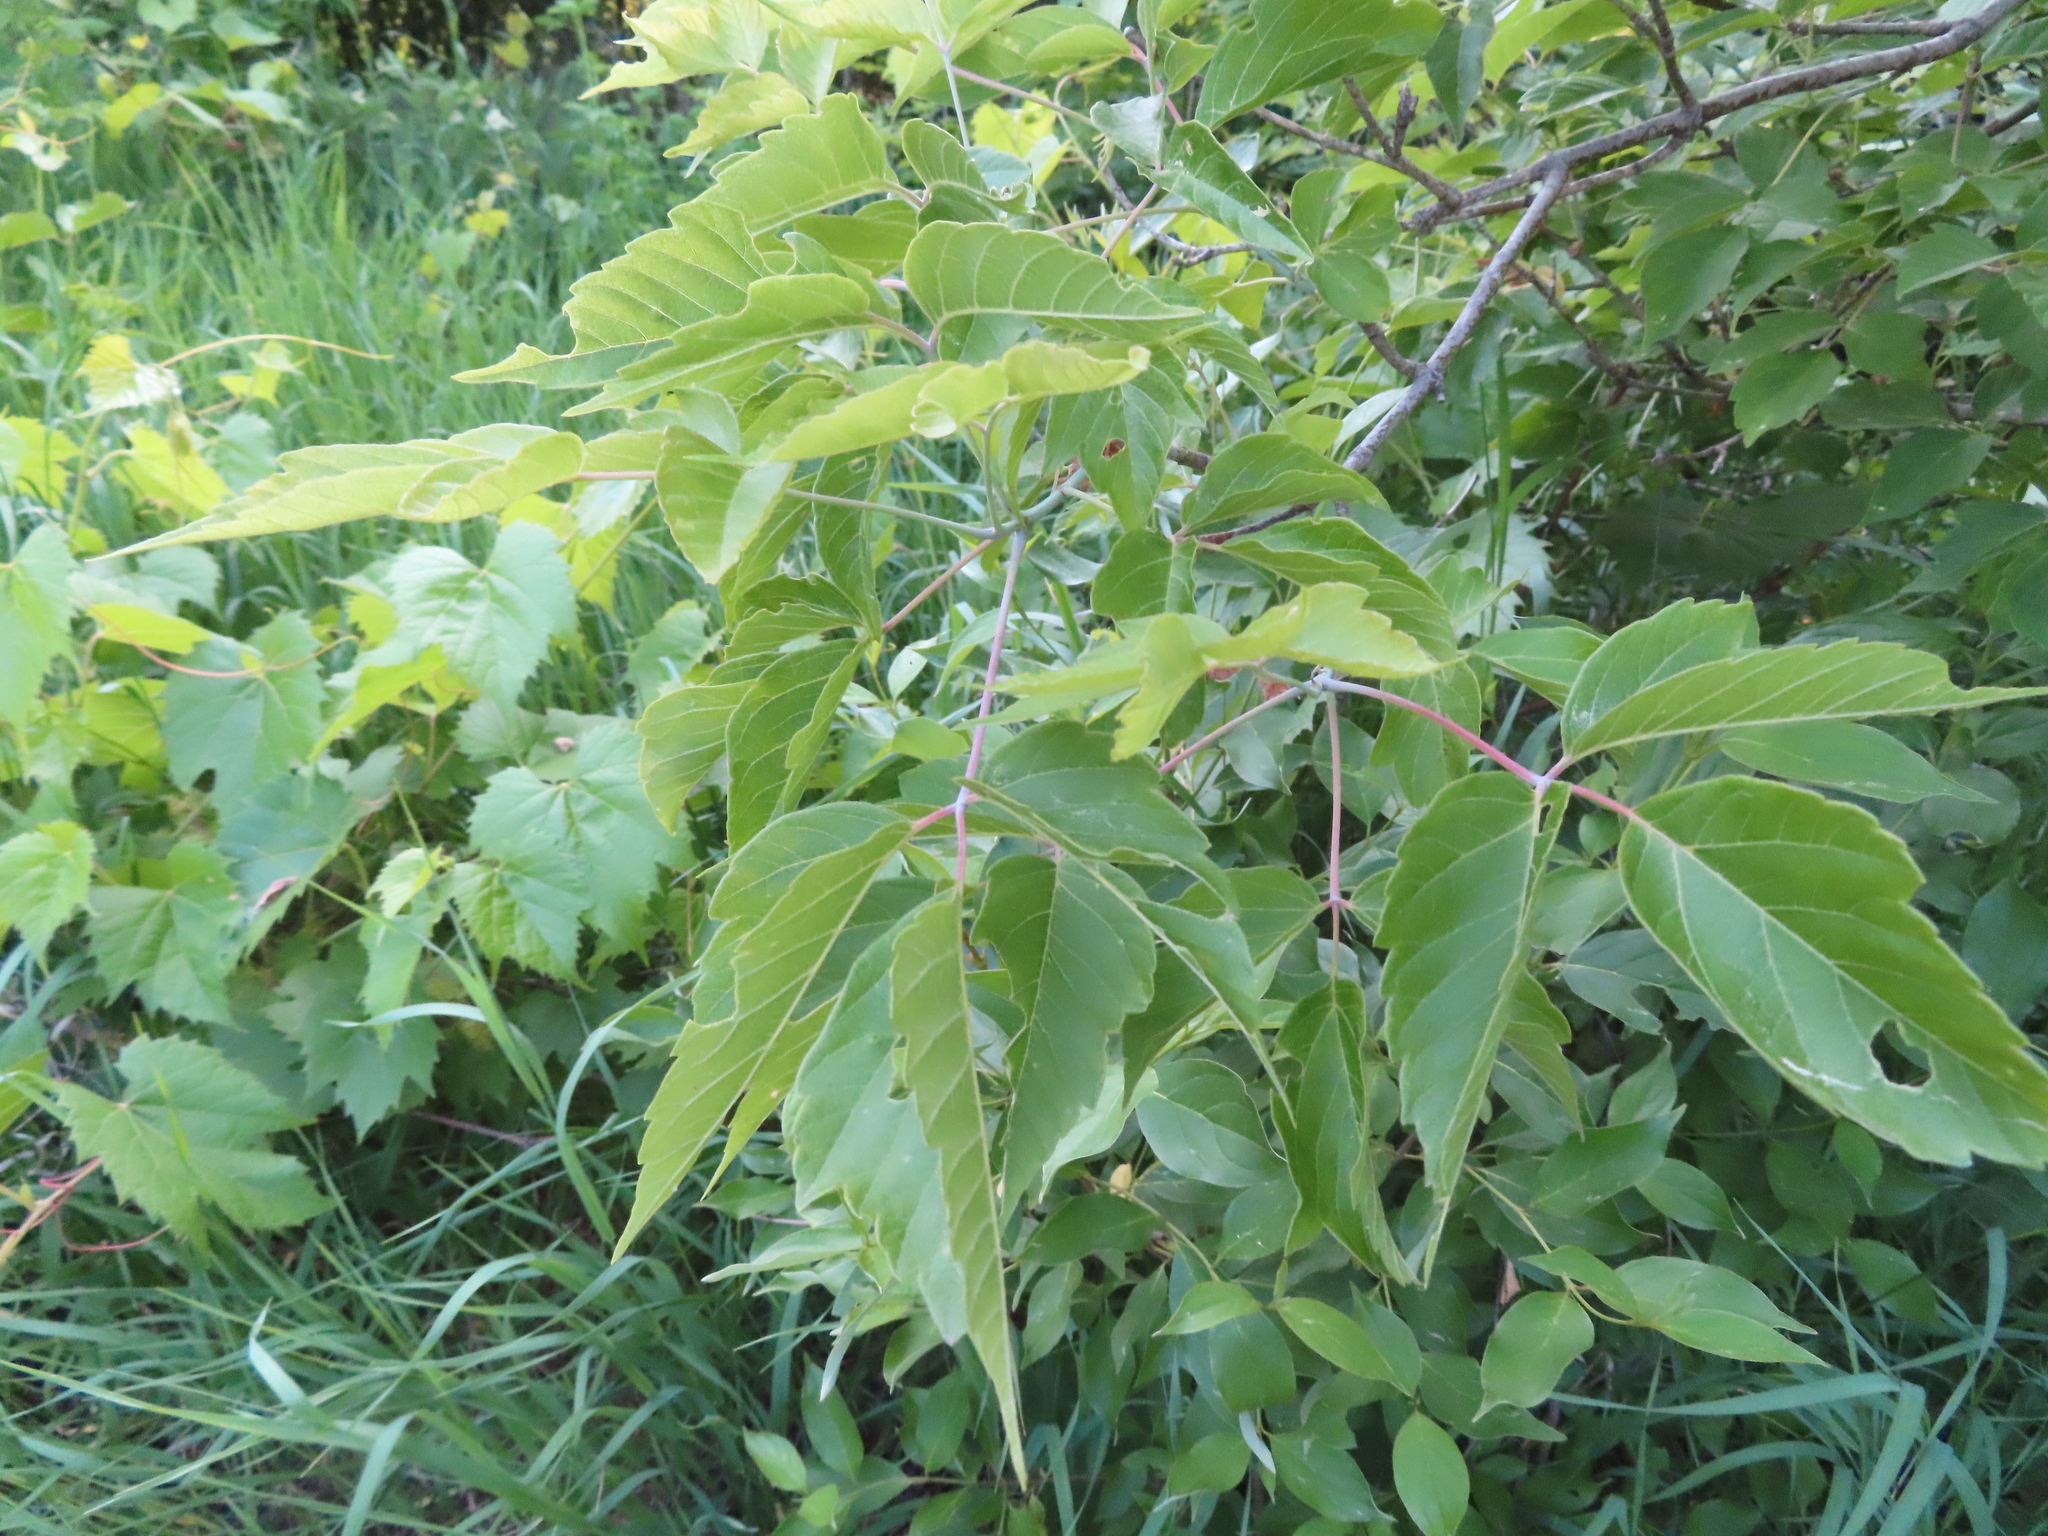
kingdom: Plantae
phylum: Tracheophyta
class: Magnoliopsida
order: Sapindales
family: Sapindaceae
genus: Acer
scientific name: Acer negundo
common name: Ashleaf maple
